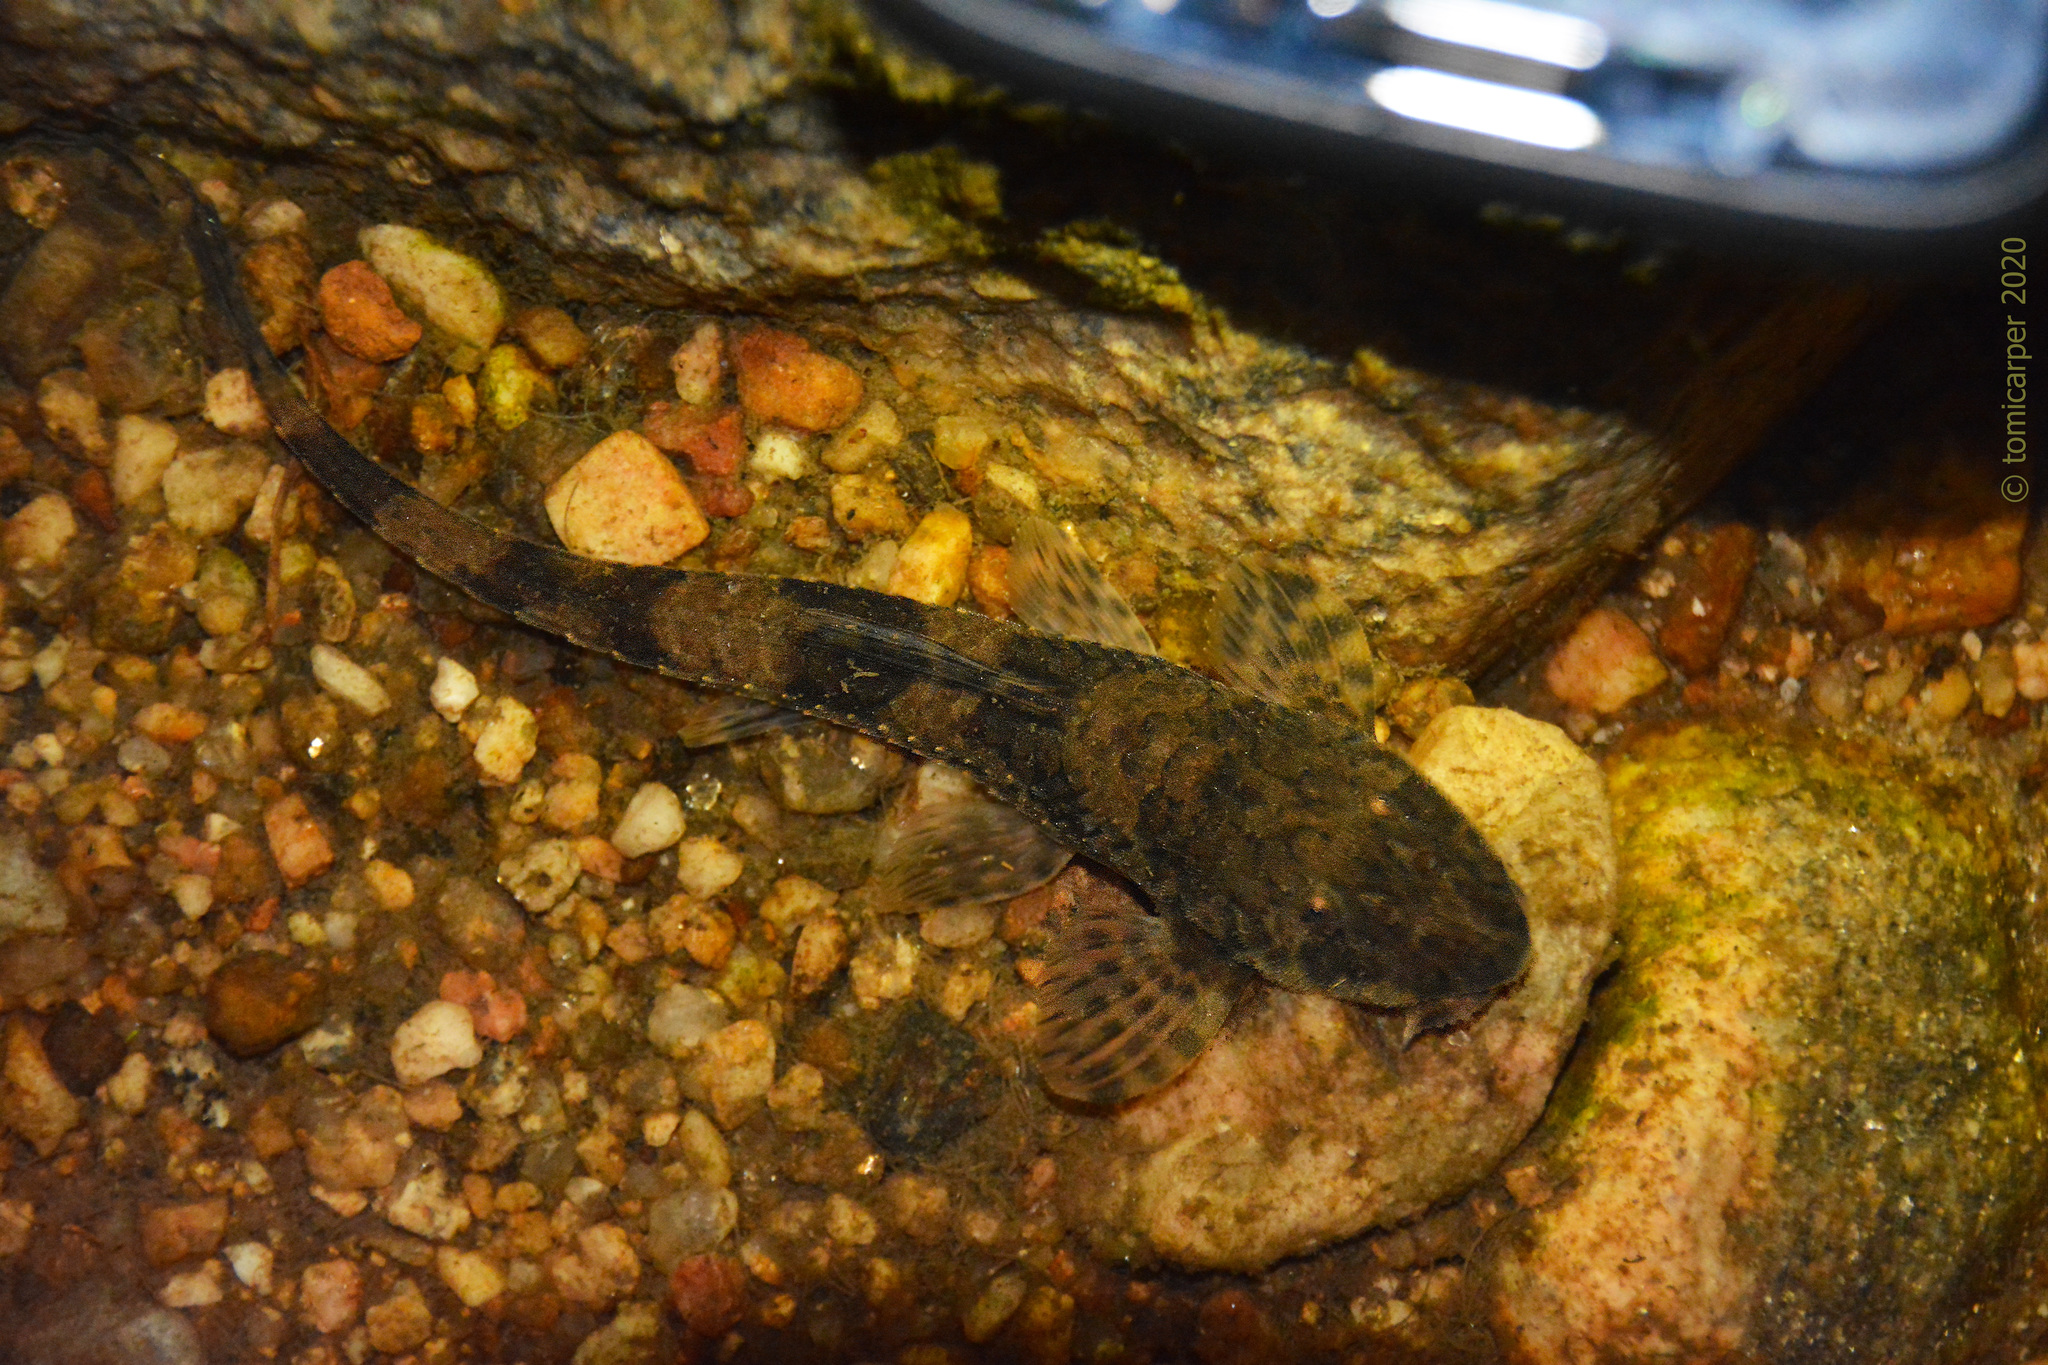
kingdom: Animalia
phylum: Chordata
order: Siluriformes
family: Loricariidae
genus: Rineloricaria
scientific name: Rineloricaria catamarcensis
